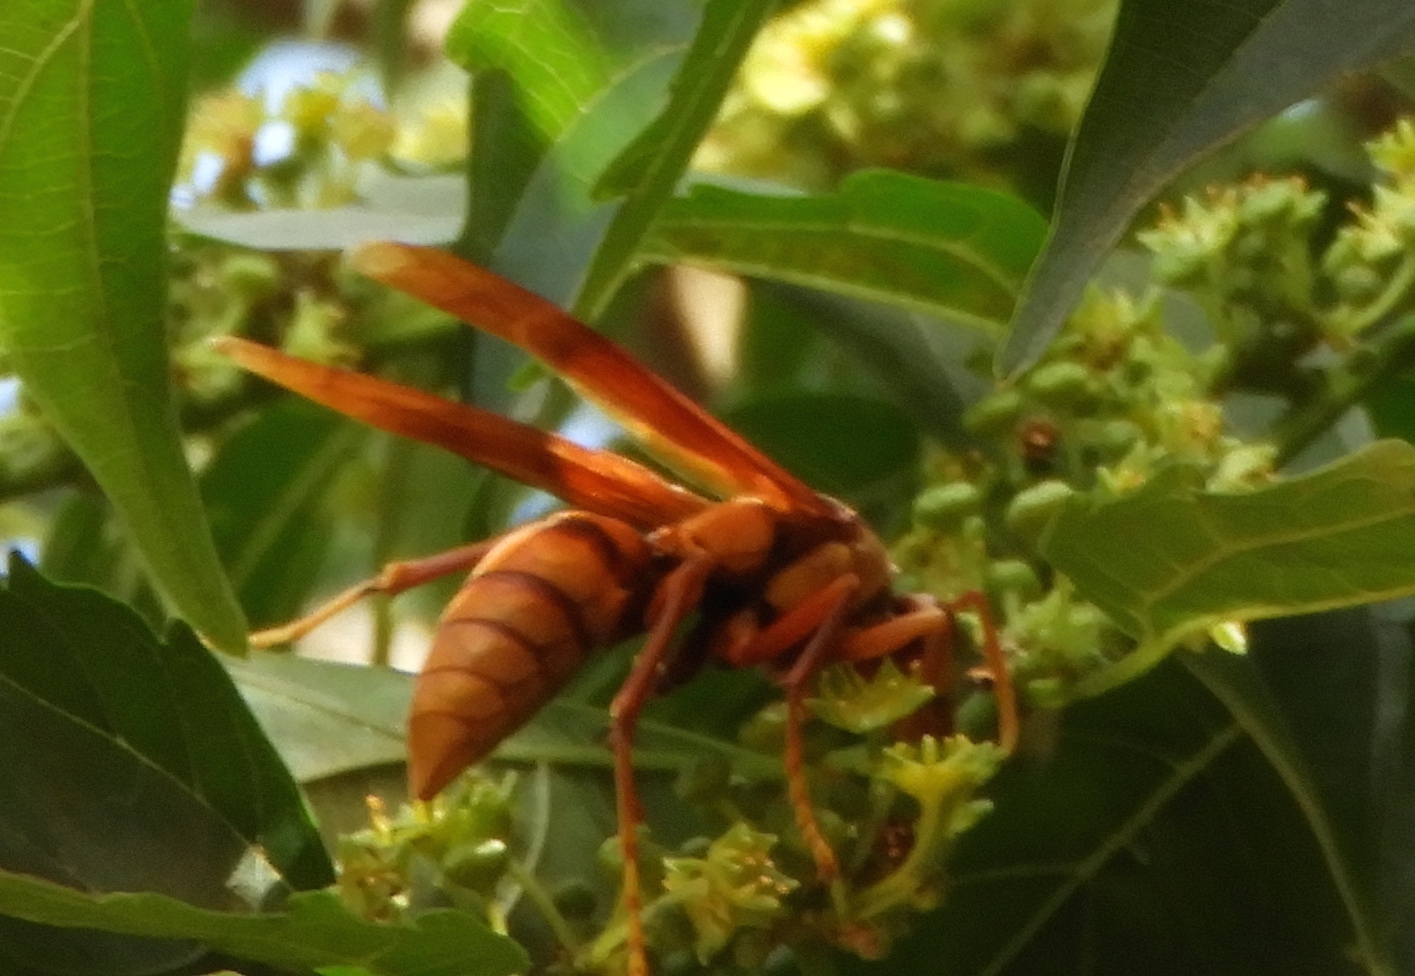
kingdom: Animalia
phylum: Arthropoda
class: Insecta
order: Hymenoptera
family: Eumenidae
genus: Polistes
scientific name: Polistes carnifex
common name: Paper wasp
